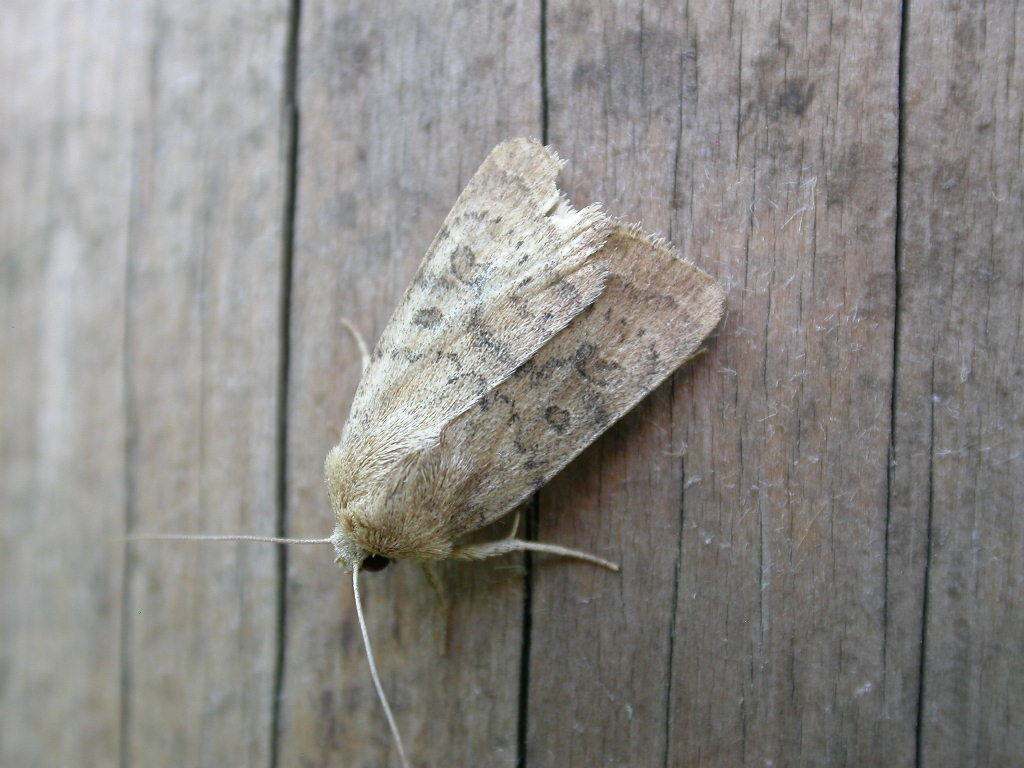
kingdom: Animalia
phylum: Arthropoda
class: Insecta
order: Lepidoptera
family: Noctuidae
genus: Hoplodrina
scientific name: Hoplodrina octogenaria
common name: Uncertain
